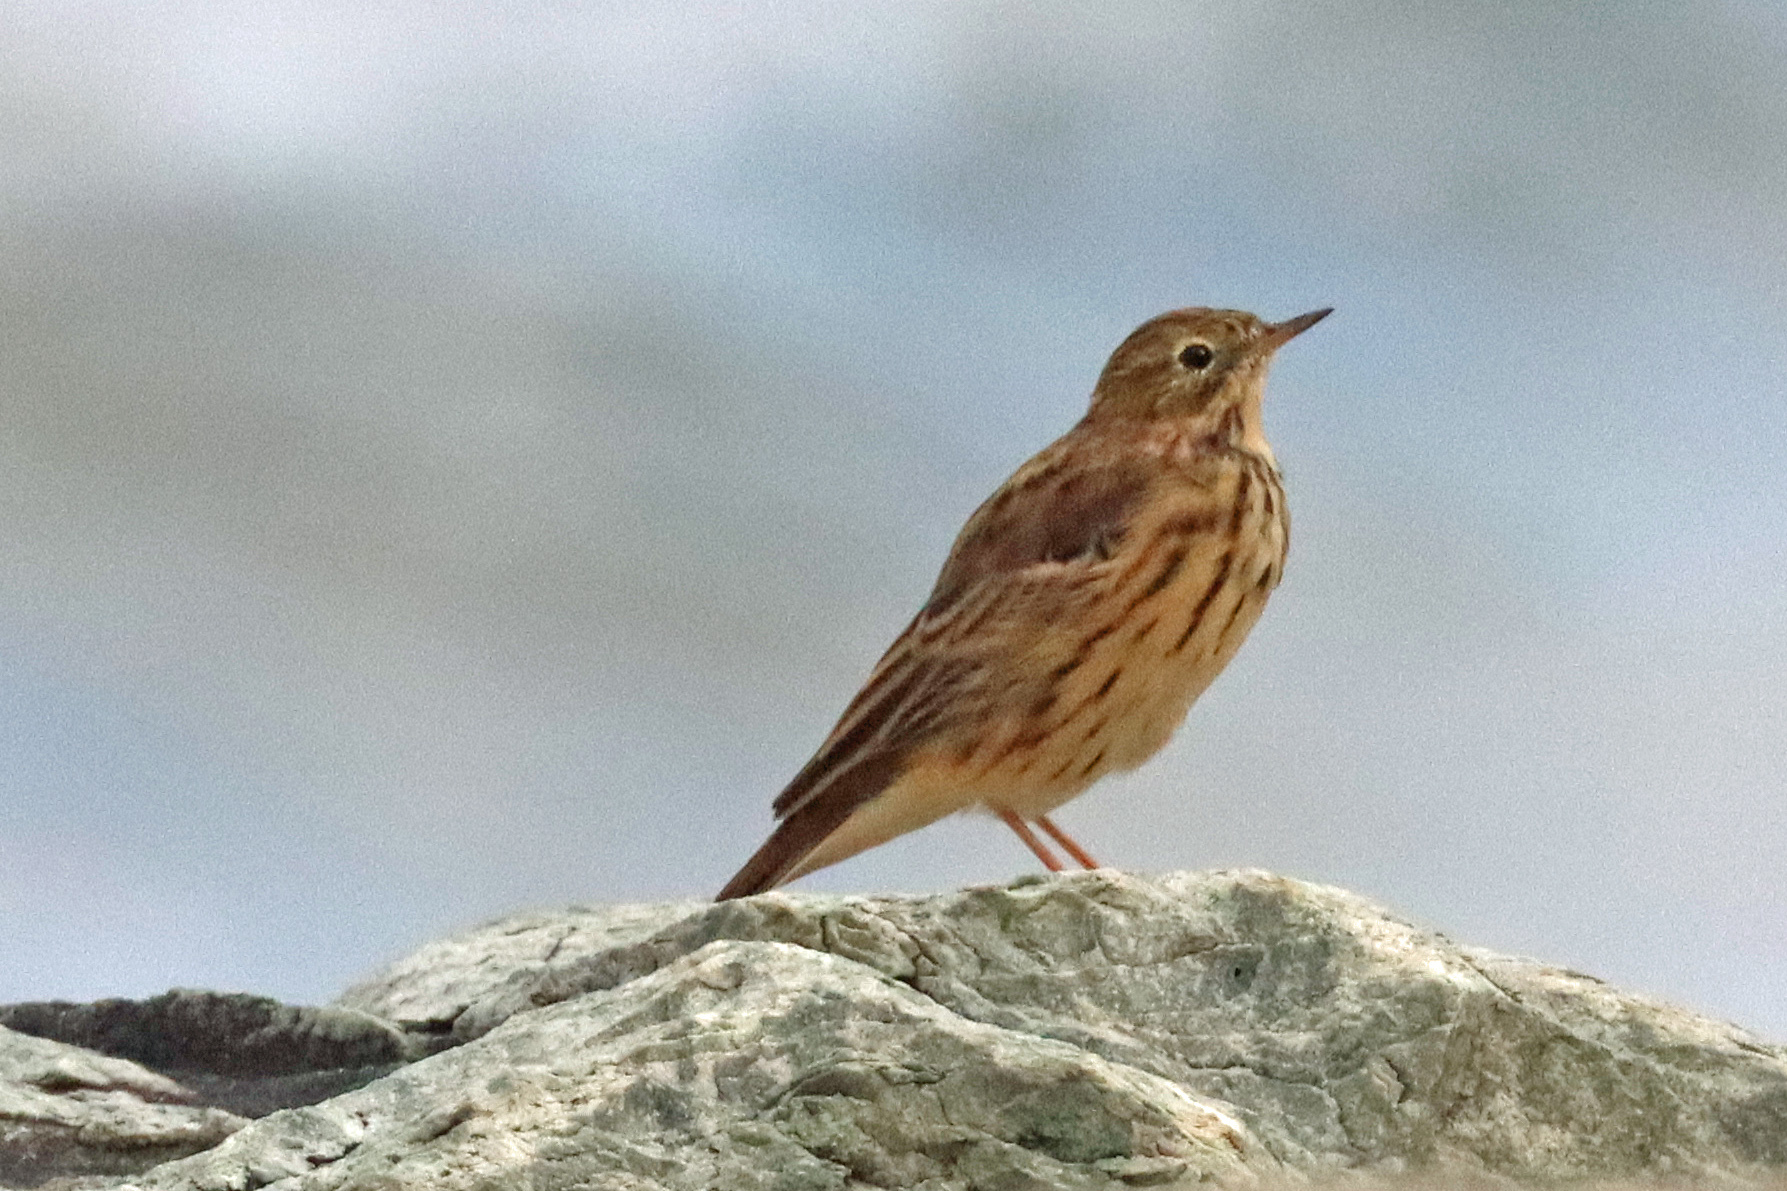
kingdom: Animalia
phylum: Chordata
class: Aves
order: Passeriformes
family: Motacillidae
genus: Anthus
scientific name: Anthus pratensis
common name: Meadow pipit
